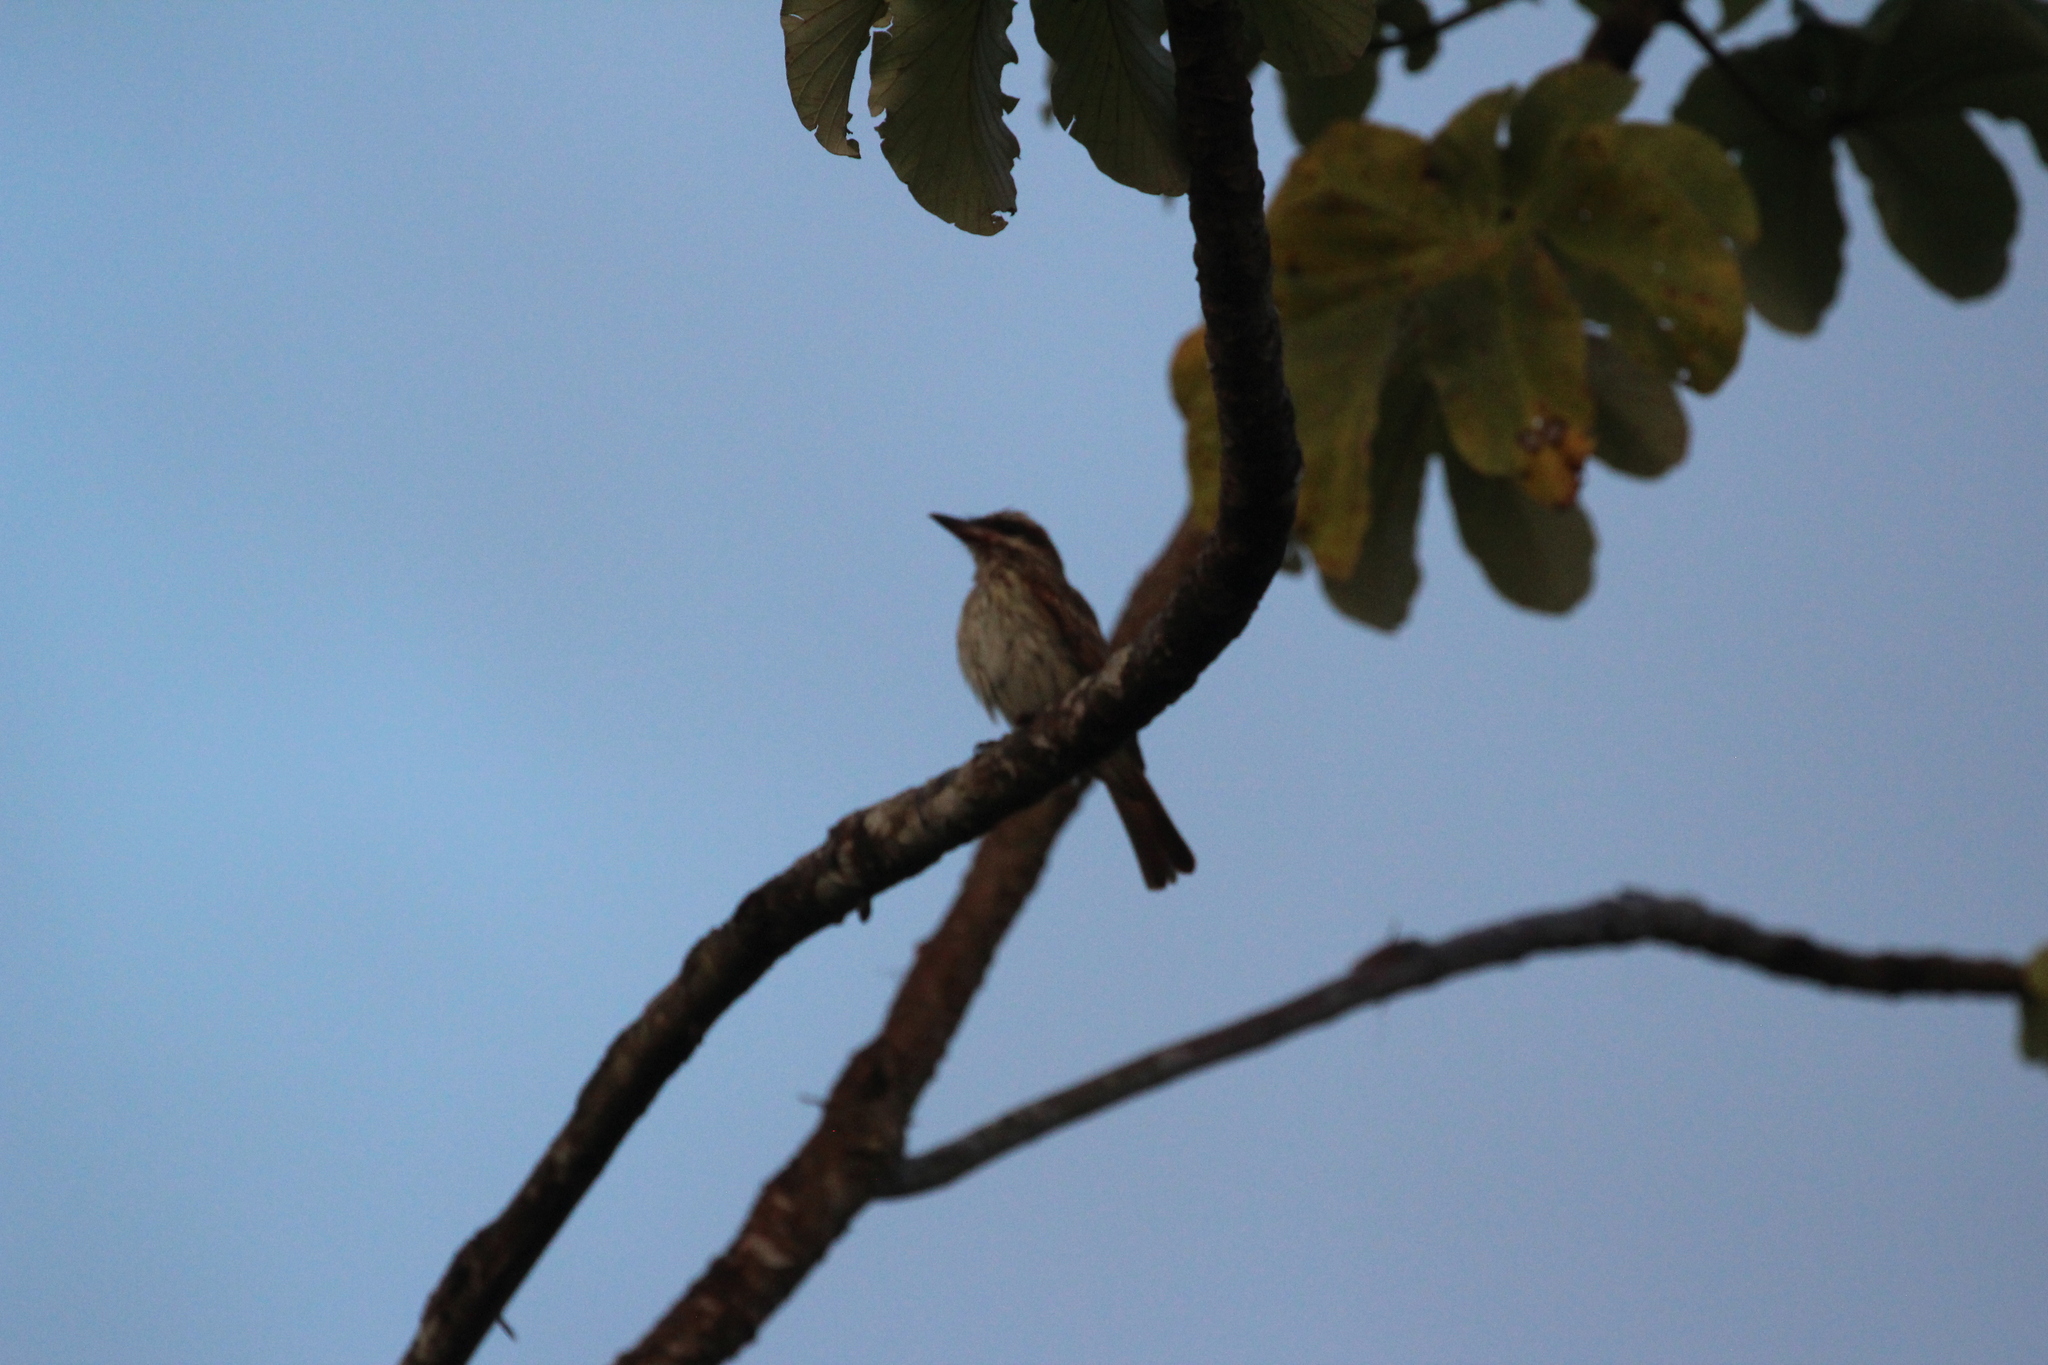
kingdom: Animalia
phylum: Chordata
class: Aves
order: Passeriformes
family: Tyrannidae
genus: Myiodynastes
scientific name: Myiodynastes maculatus
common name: Streaked flycatcher
